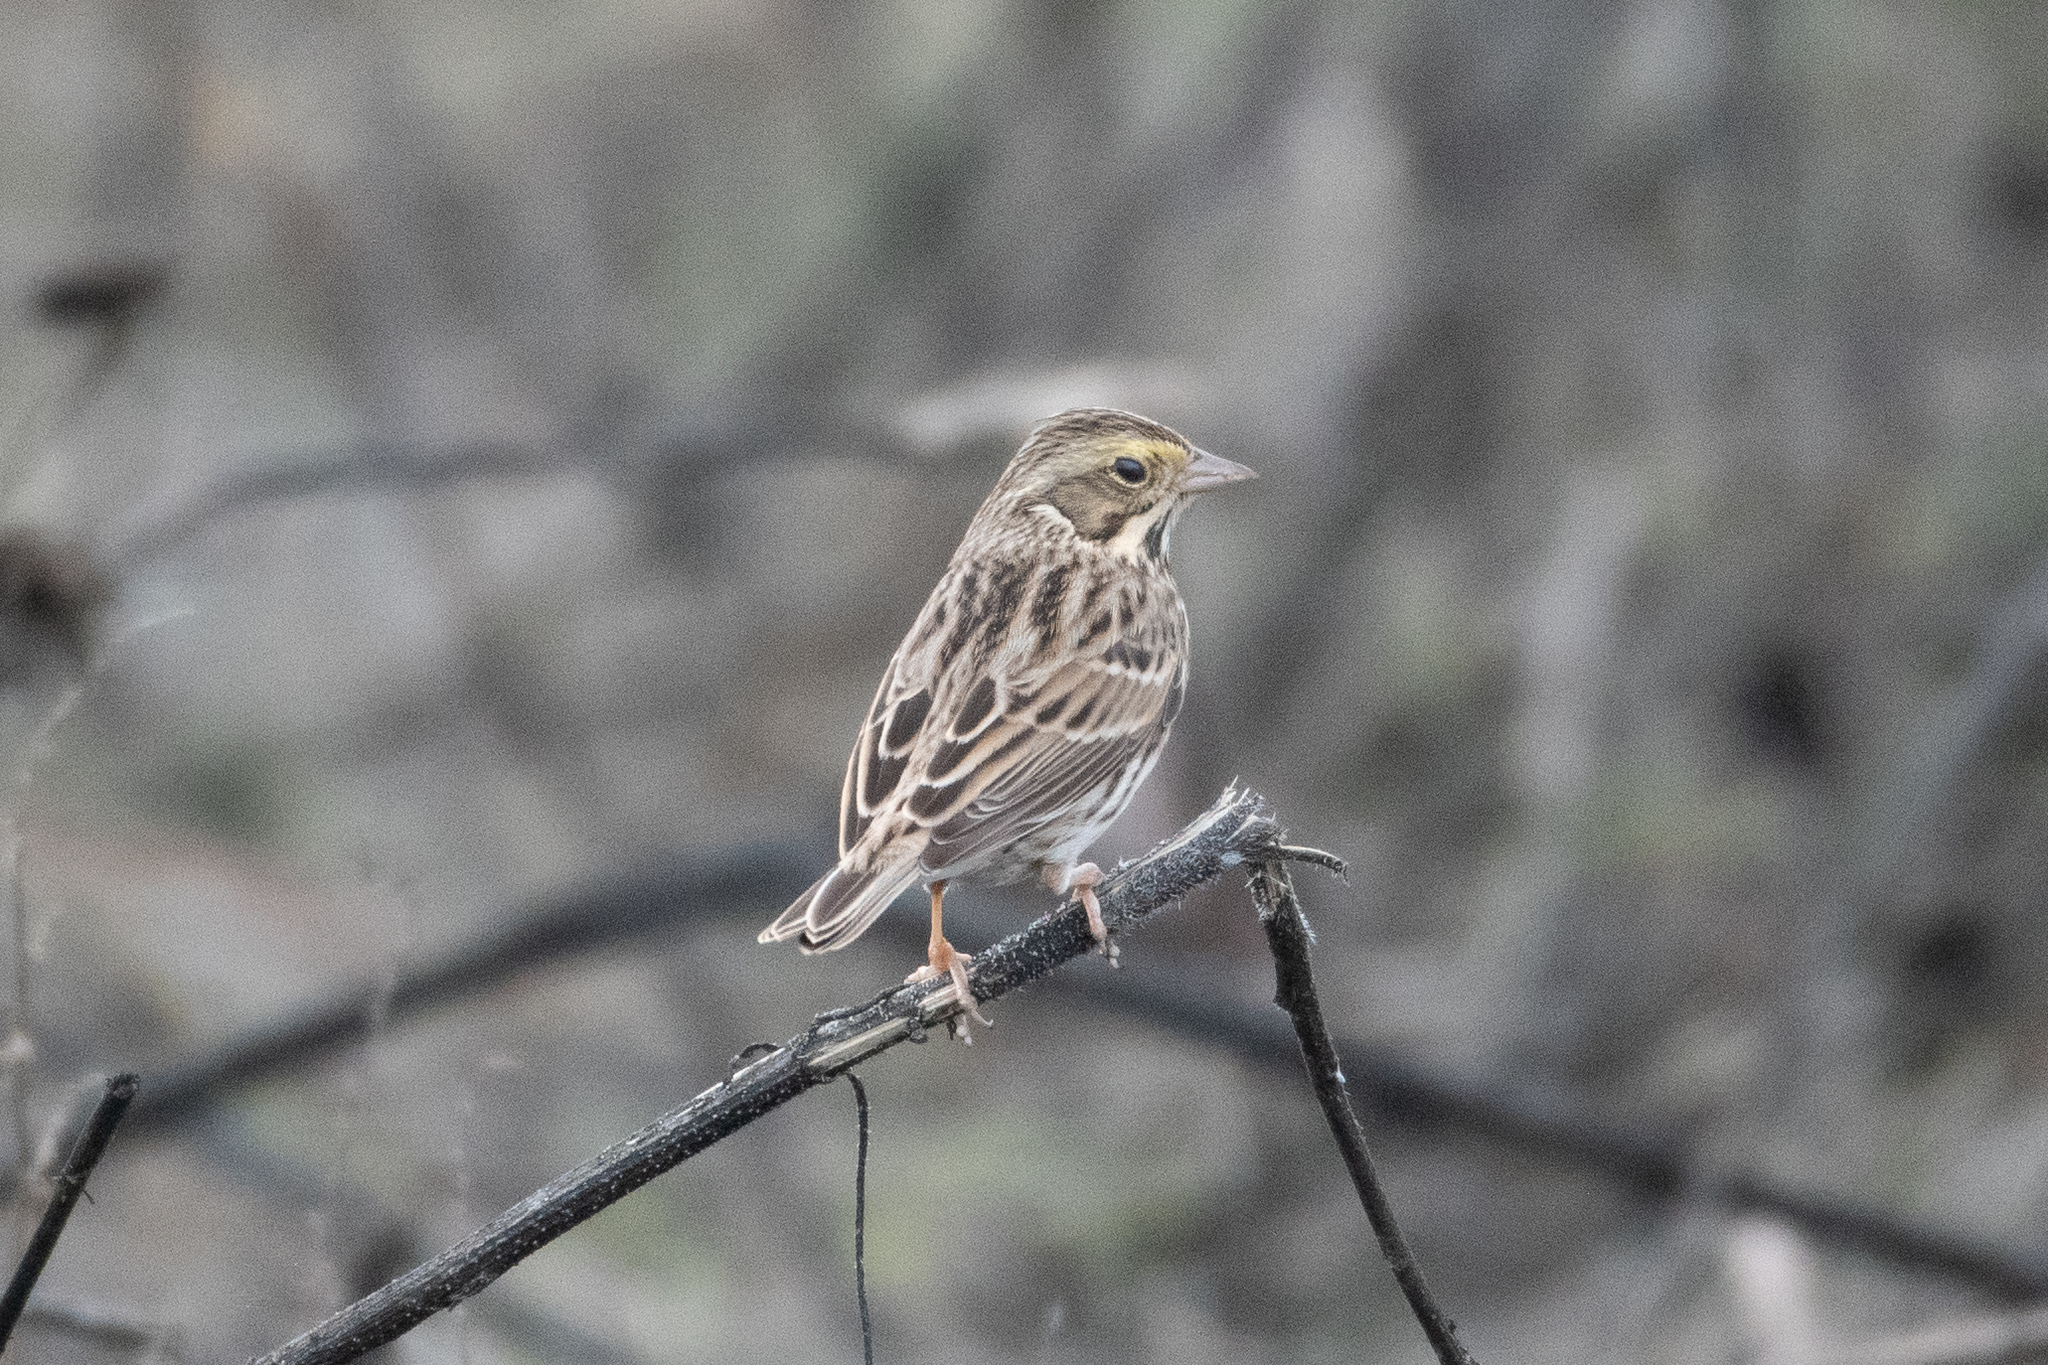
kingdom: Animalia
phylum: Chordata
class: Aves
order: Passeriformes
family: Passerellidae
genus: Passerculus
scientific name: Passerculus sandwichensis
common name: Savannah sparrow
